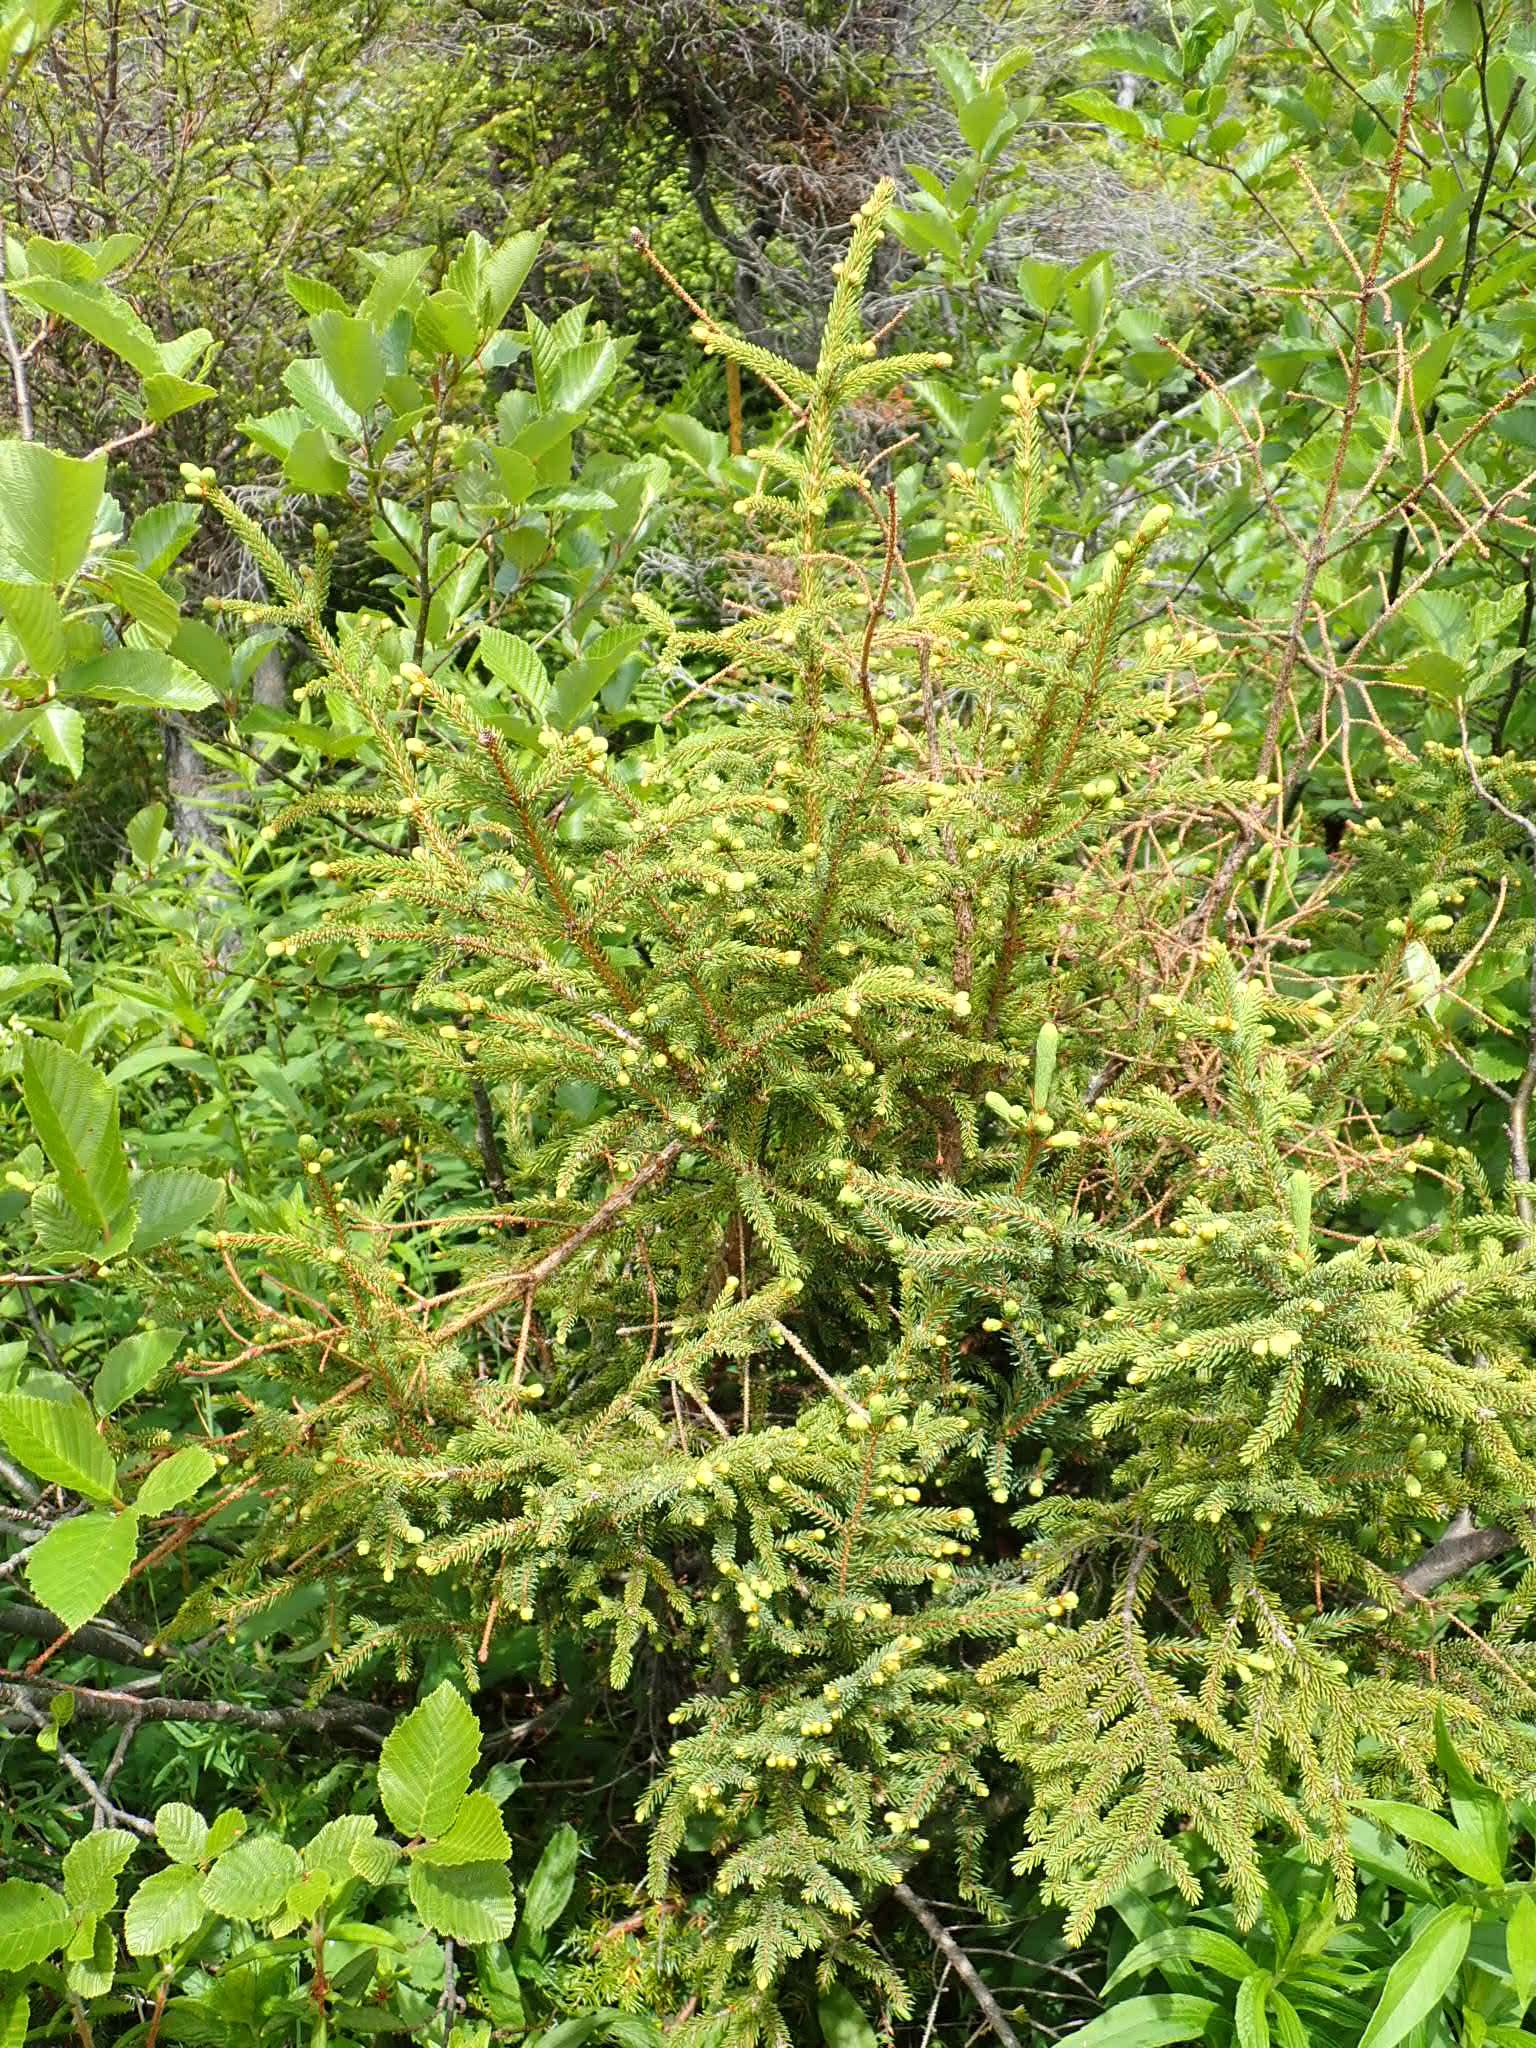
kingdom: Plantae
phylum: Tracheophyta
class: Pinopsida
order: Pinales
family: Pinaceae
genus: Picea
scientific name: Picea mariana
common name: Black spruce
